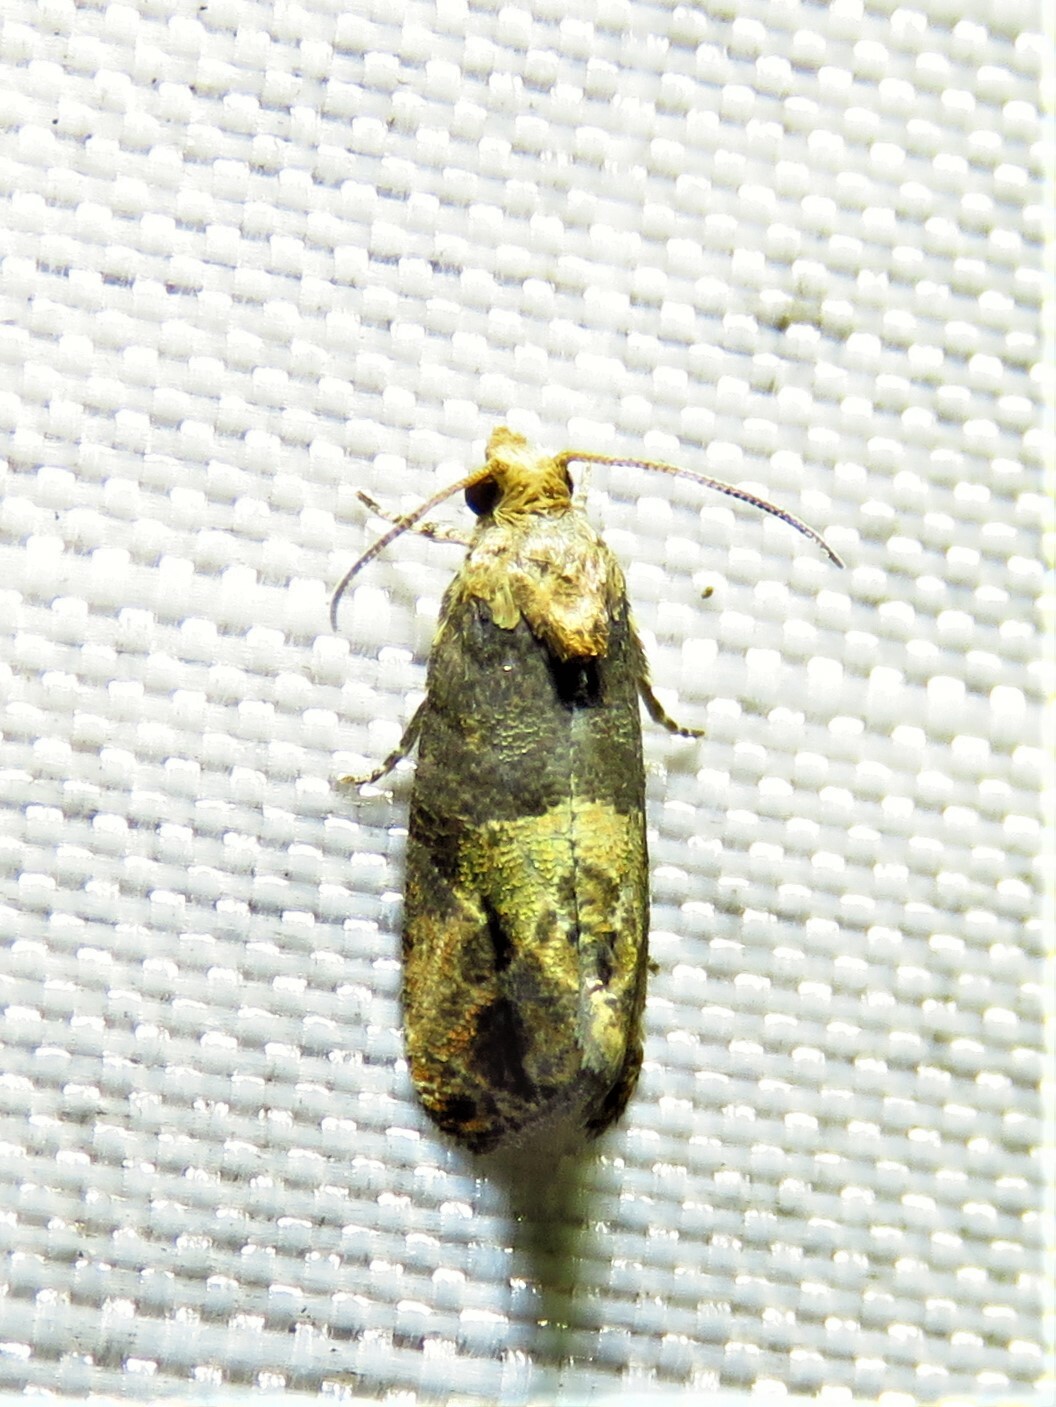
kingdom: Animalia
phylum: Arthropoda
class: Insecta
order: Lepidoptera
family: Tortricidae
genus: Paralobesia
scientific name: Paralobesia viteana
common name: Grape berry moth
